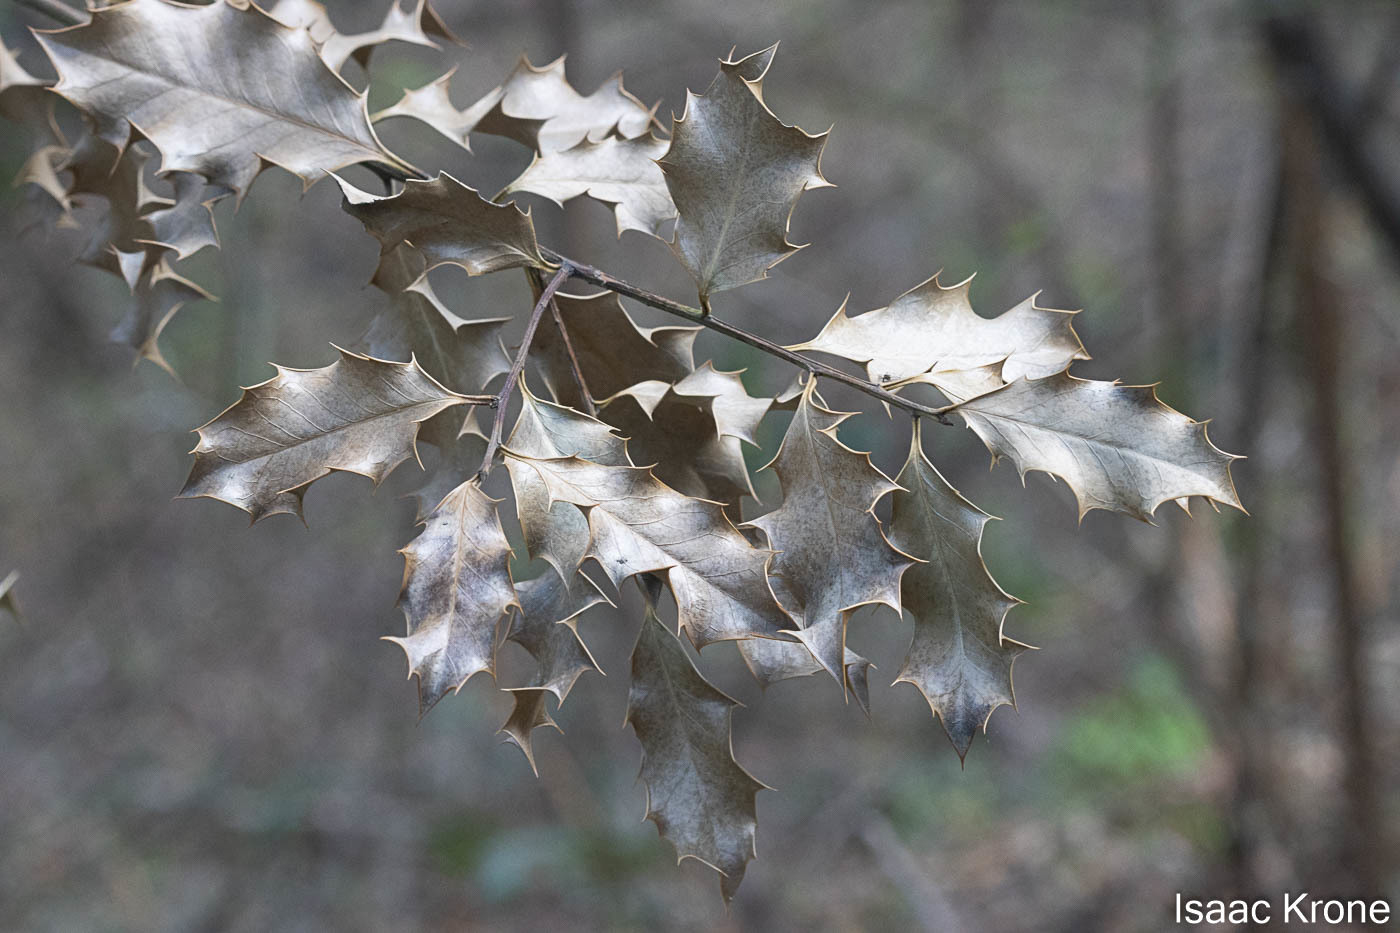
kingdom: Plantae
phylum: Tracheophyta
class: Magnoliopsida
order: Aquifoliales
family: Aquifoliaceae
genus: Ilex
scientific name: Ilex aquifolium
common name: English holly
